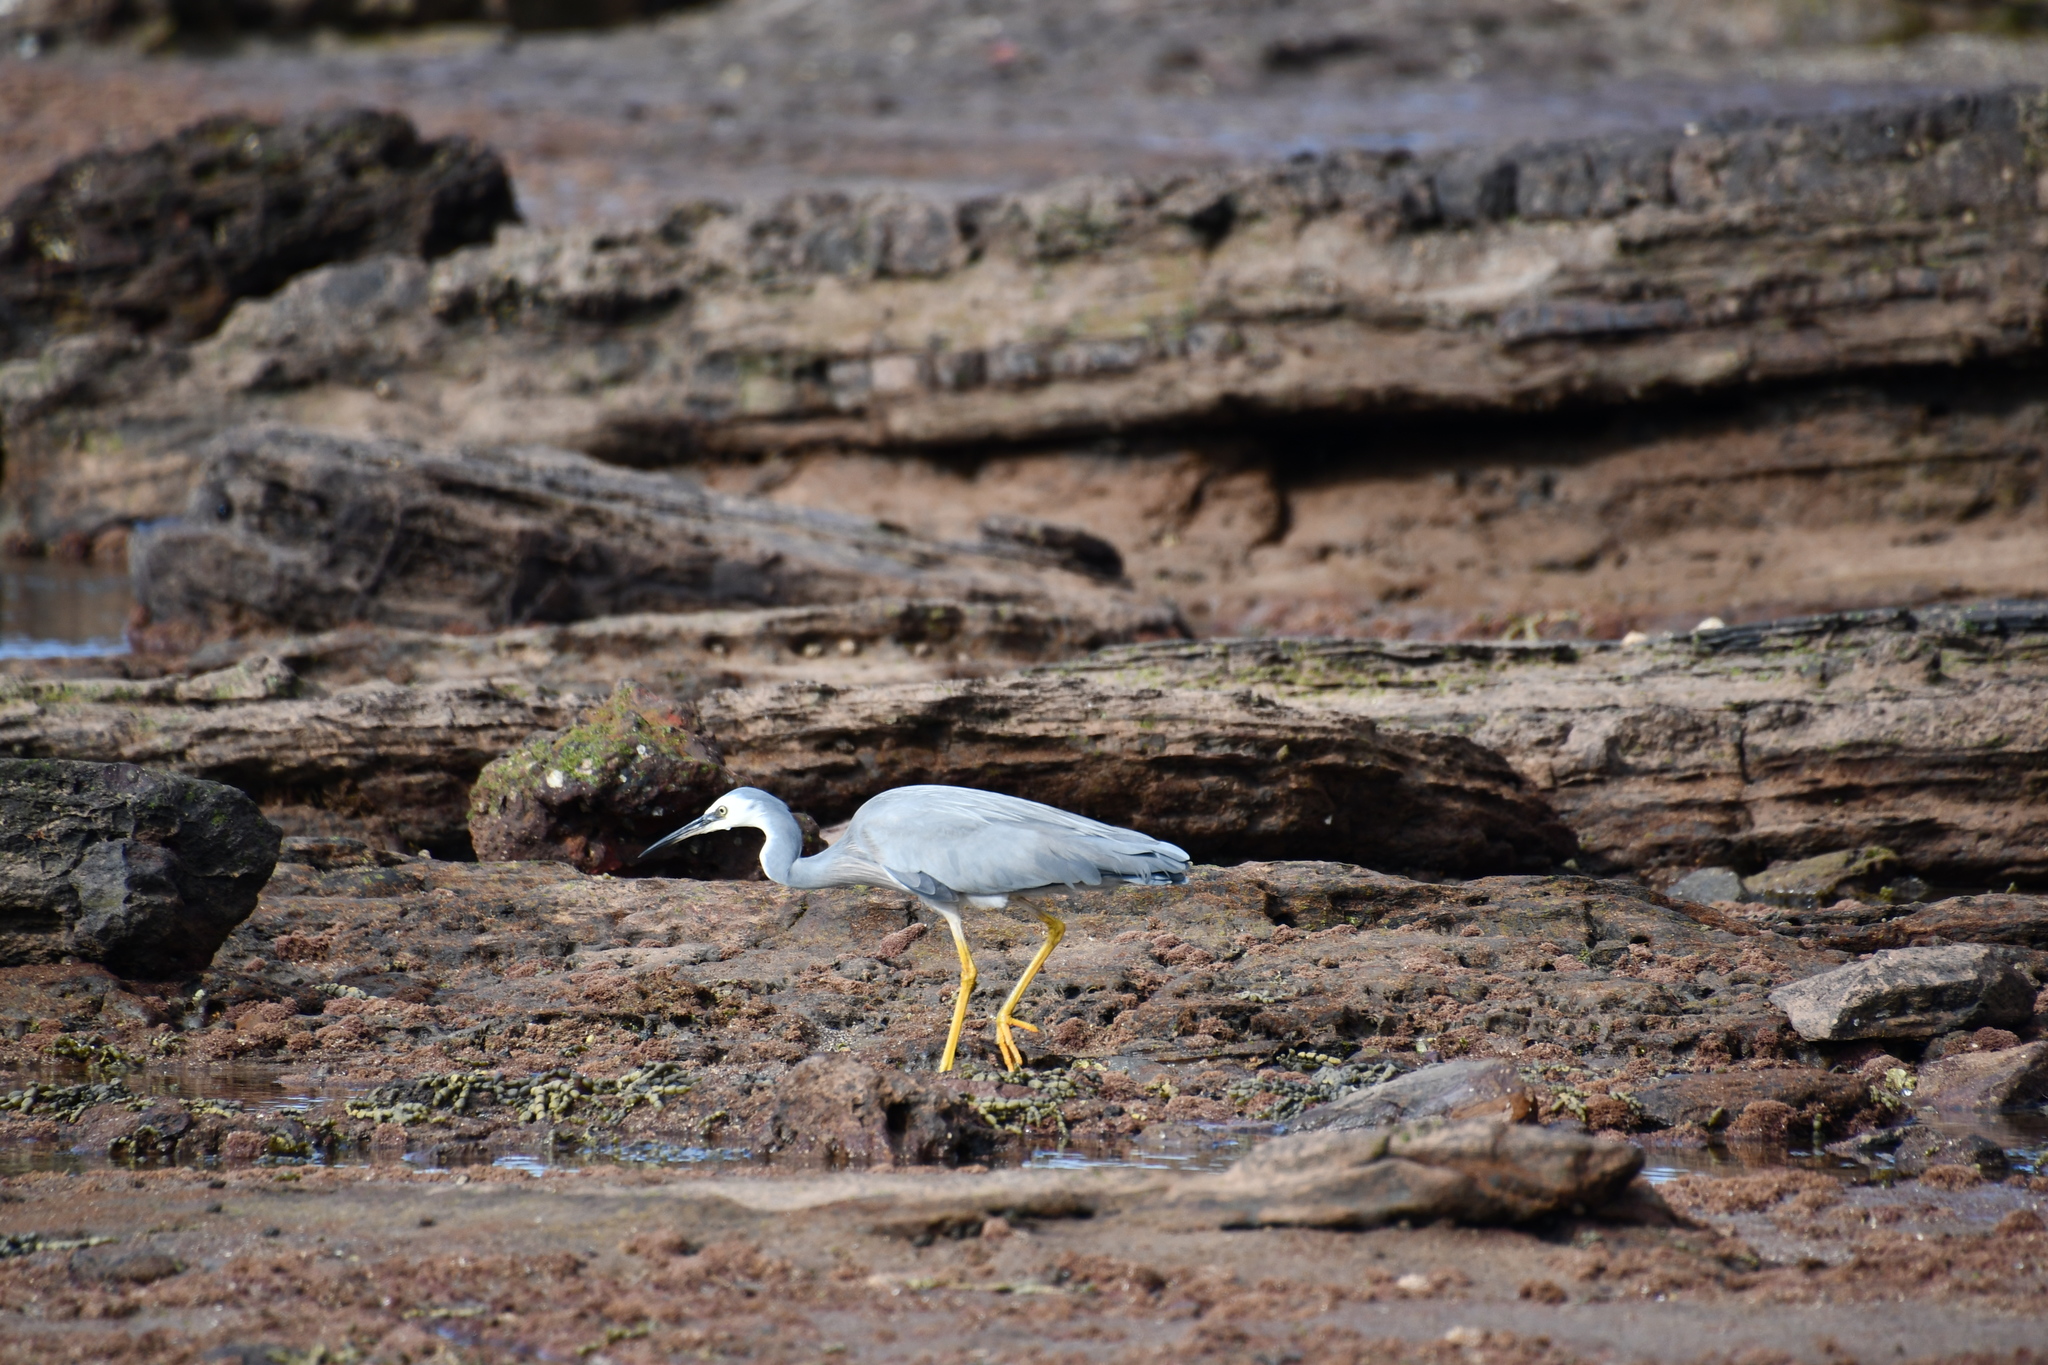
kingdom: Animalia
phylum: Chordata
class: Aves
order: Pelecaniformes
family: Ardeidae
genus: Egretta
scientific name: Egretta novaehollandiae
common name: White-faced heron
